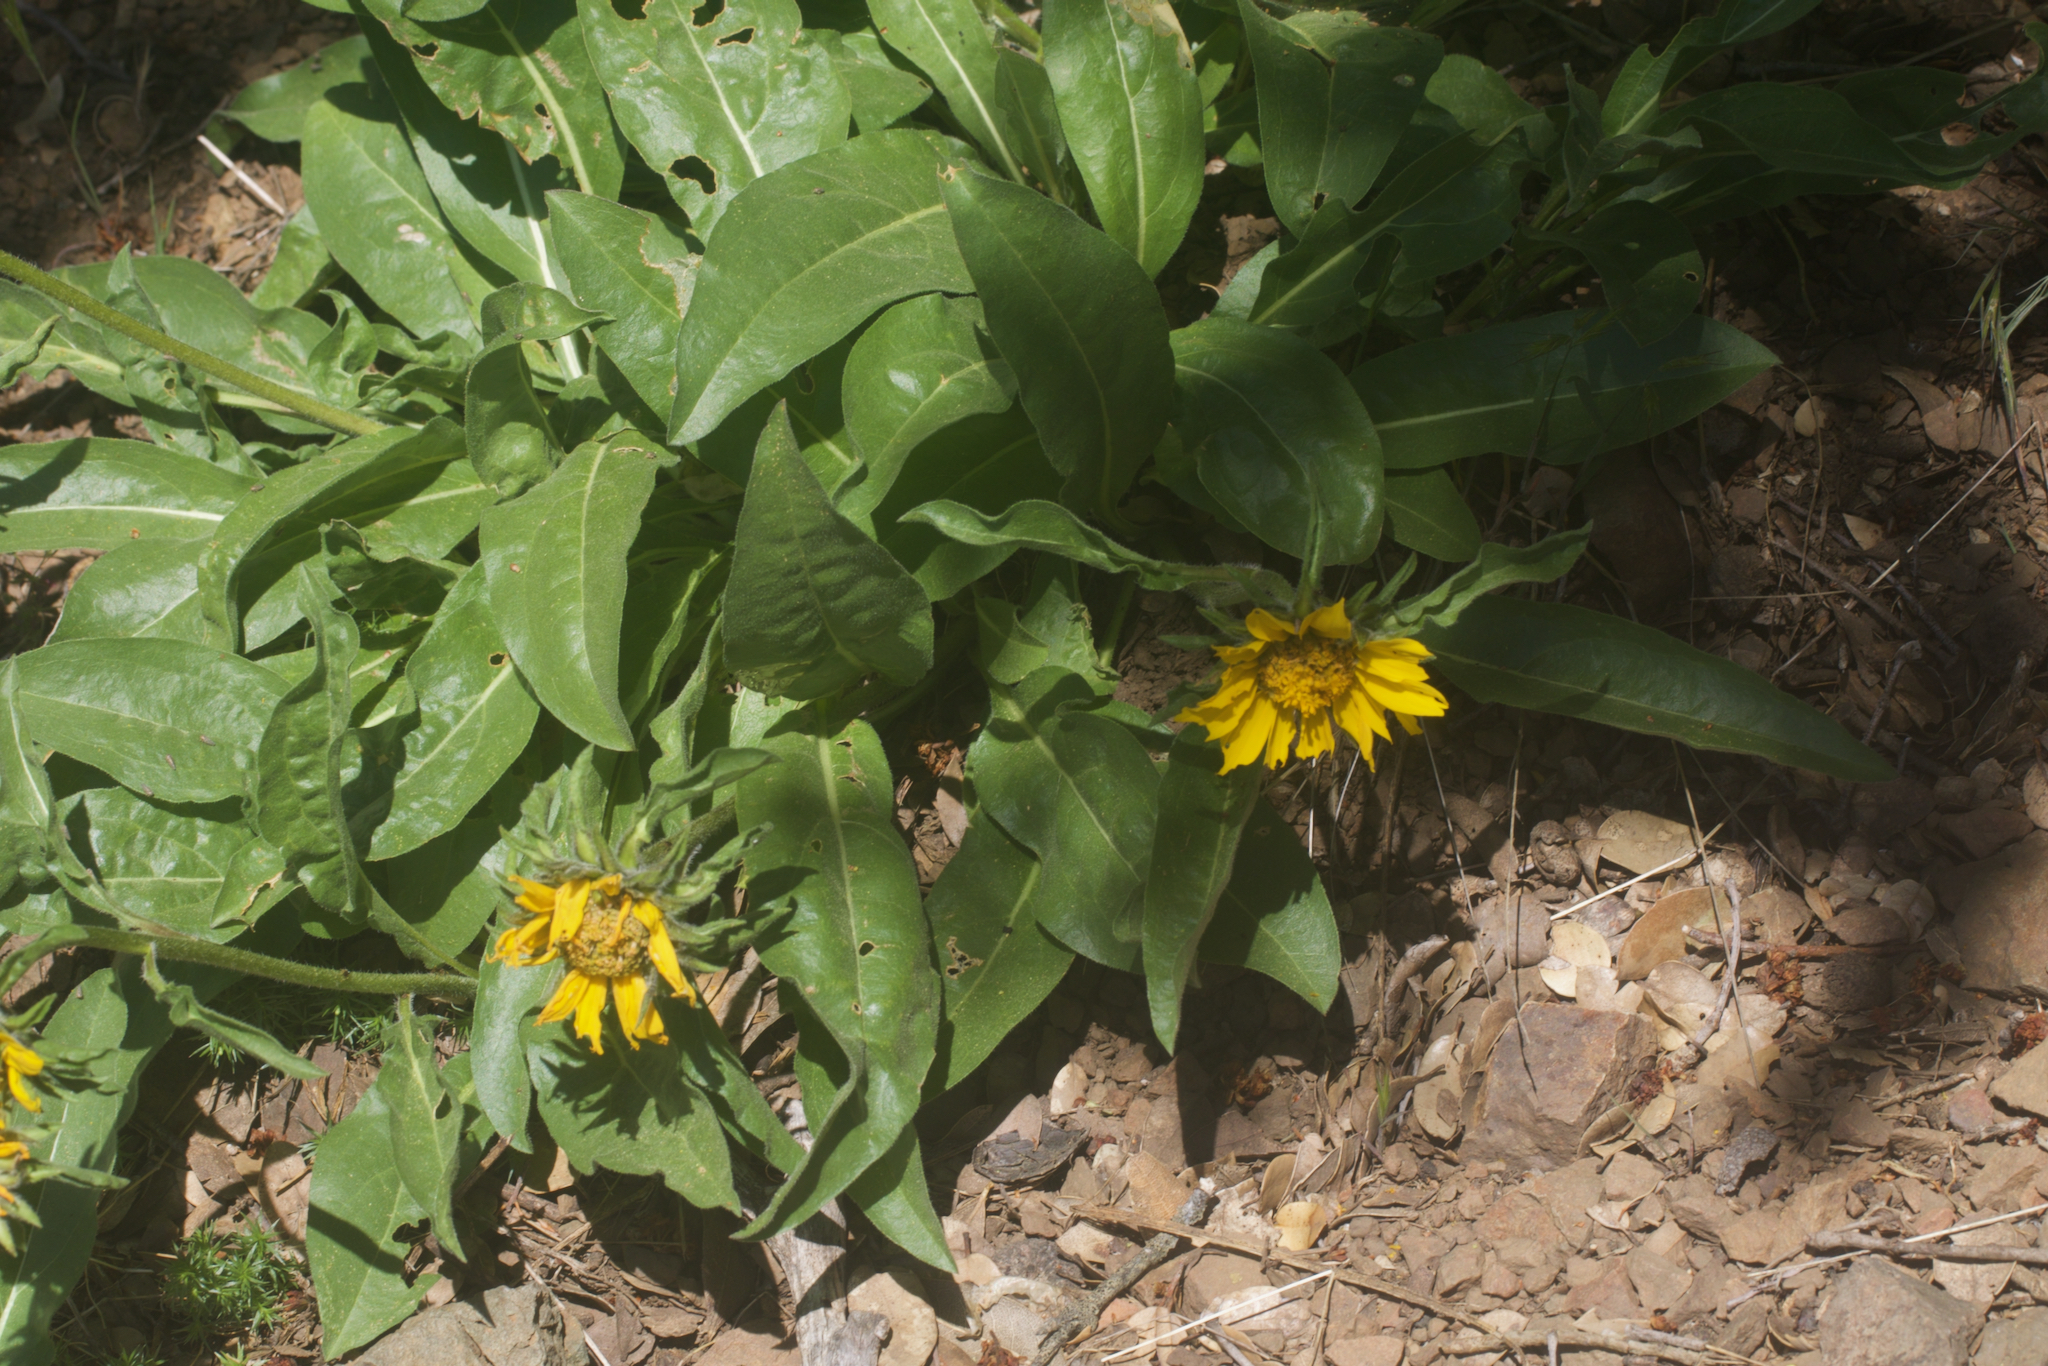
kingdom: Plantae
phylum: Tracheophyta
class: Magnoliopsida
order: Asterales
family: Asteraceae
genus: Helianthella
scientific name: Helianthella castanea
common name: Diablo helianthella
